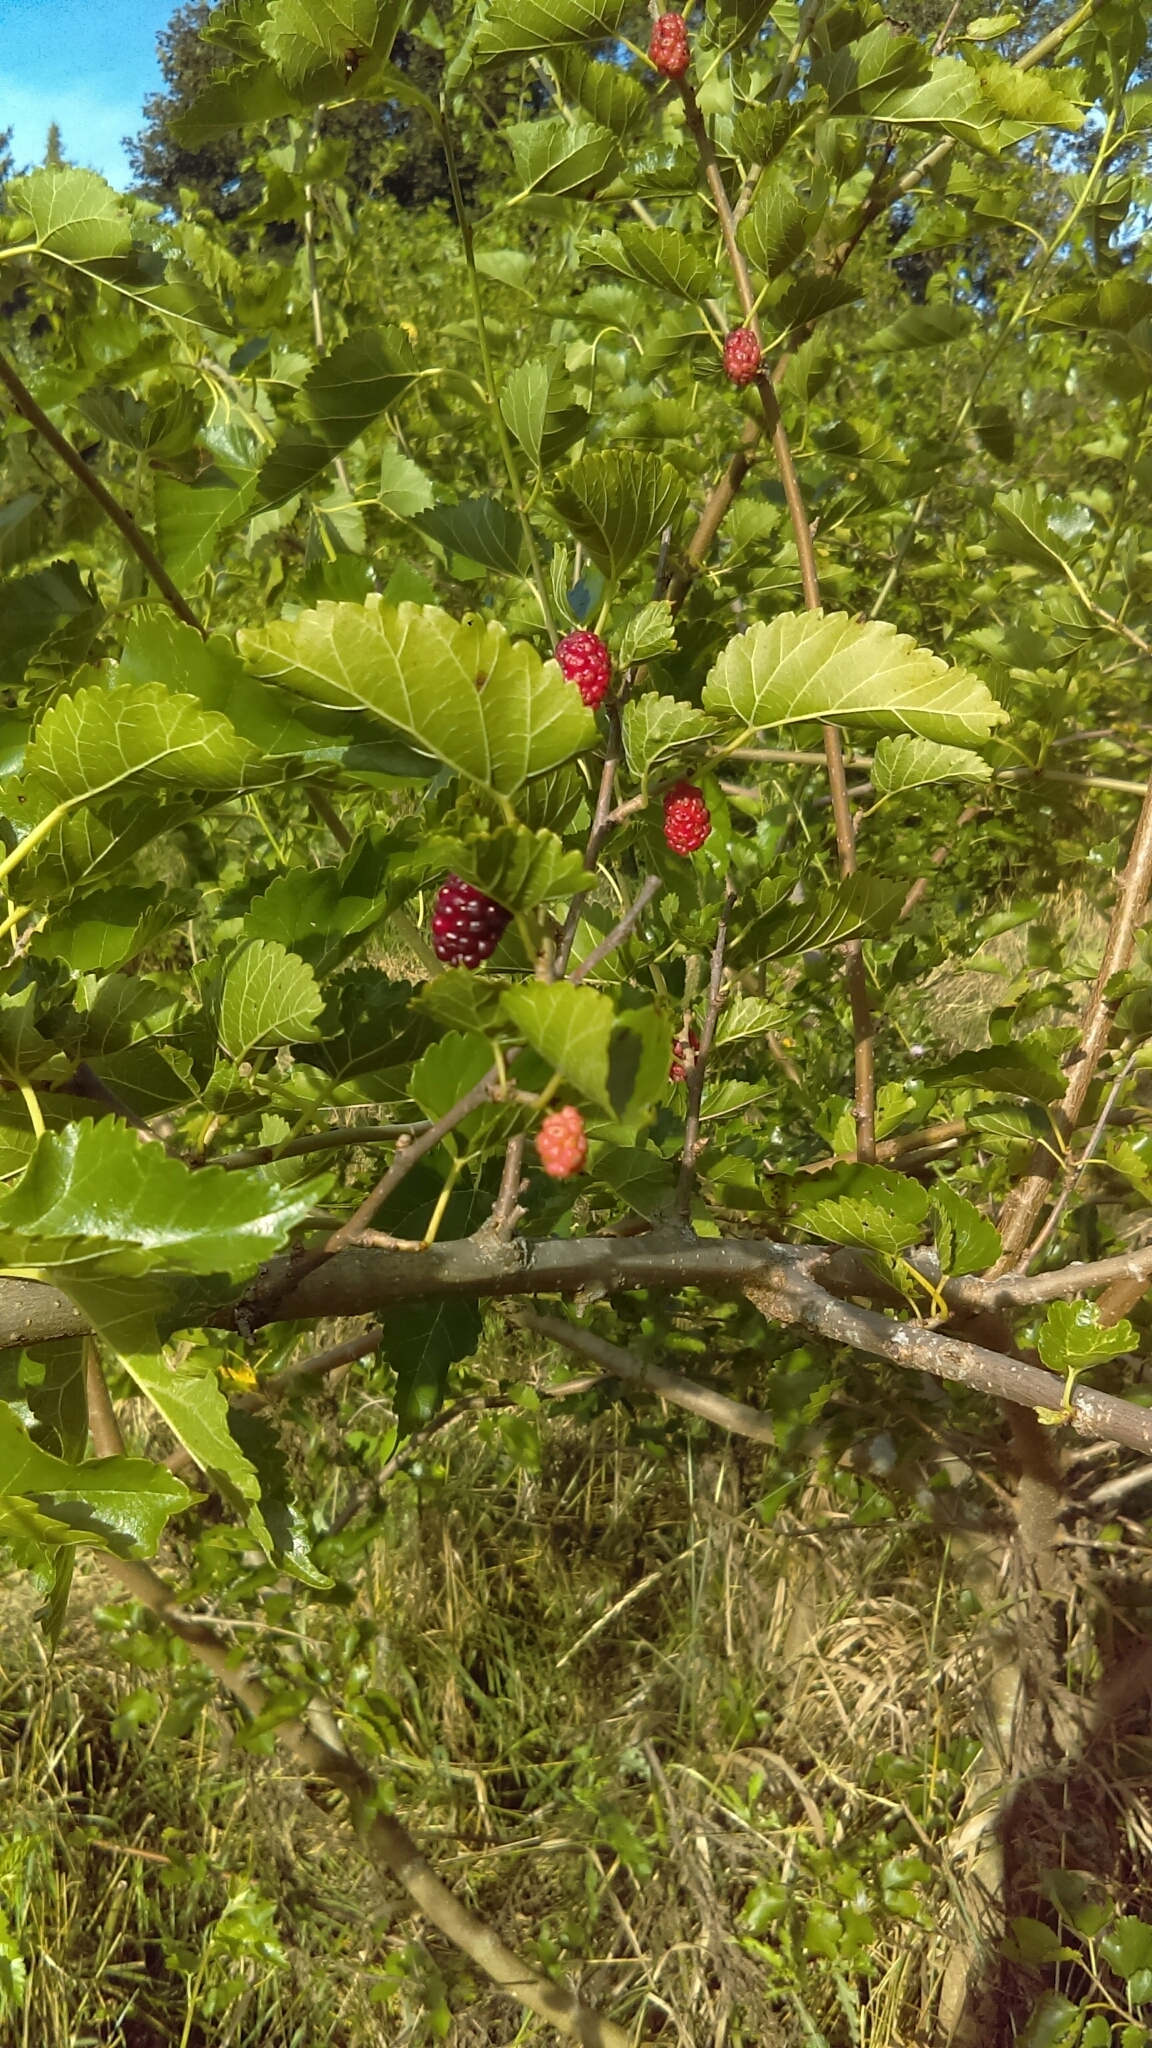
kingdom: Plantae
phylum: Tracheophyta
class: Magnoliopsida
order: Rosales
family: Moraceae
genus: Morus
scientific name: Morus alba
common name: White mulberry
